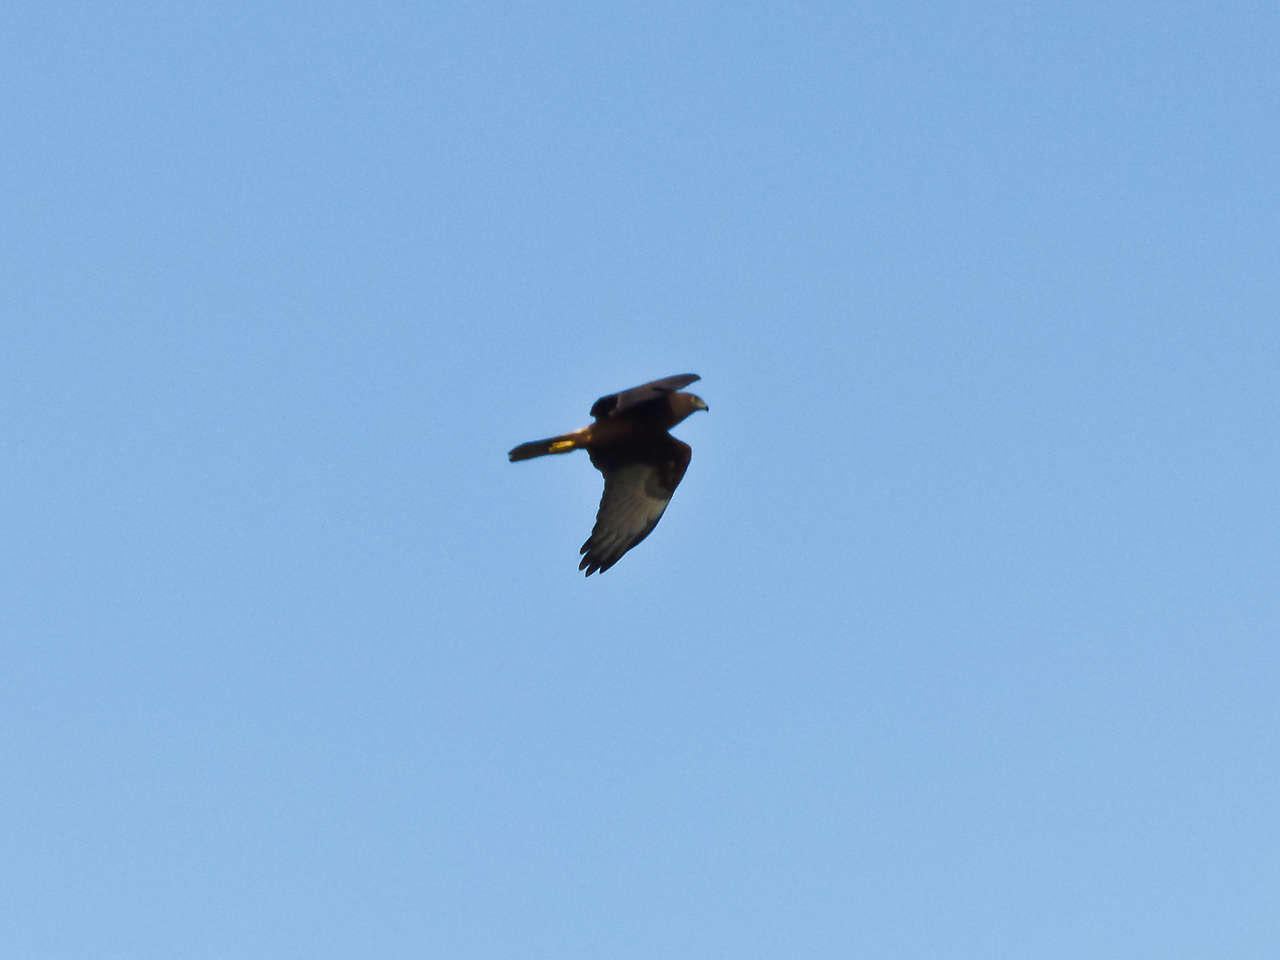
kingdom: Animalia
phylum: Chordata
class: Aves
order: Accipitriformes
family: Accipitridae
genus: Circus
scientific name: Circus approximans
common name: Swamp harrier
